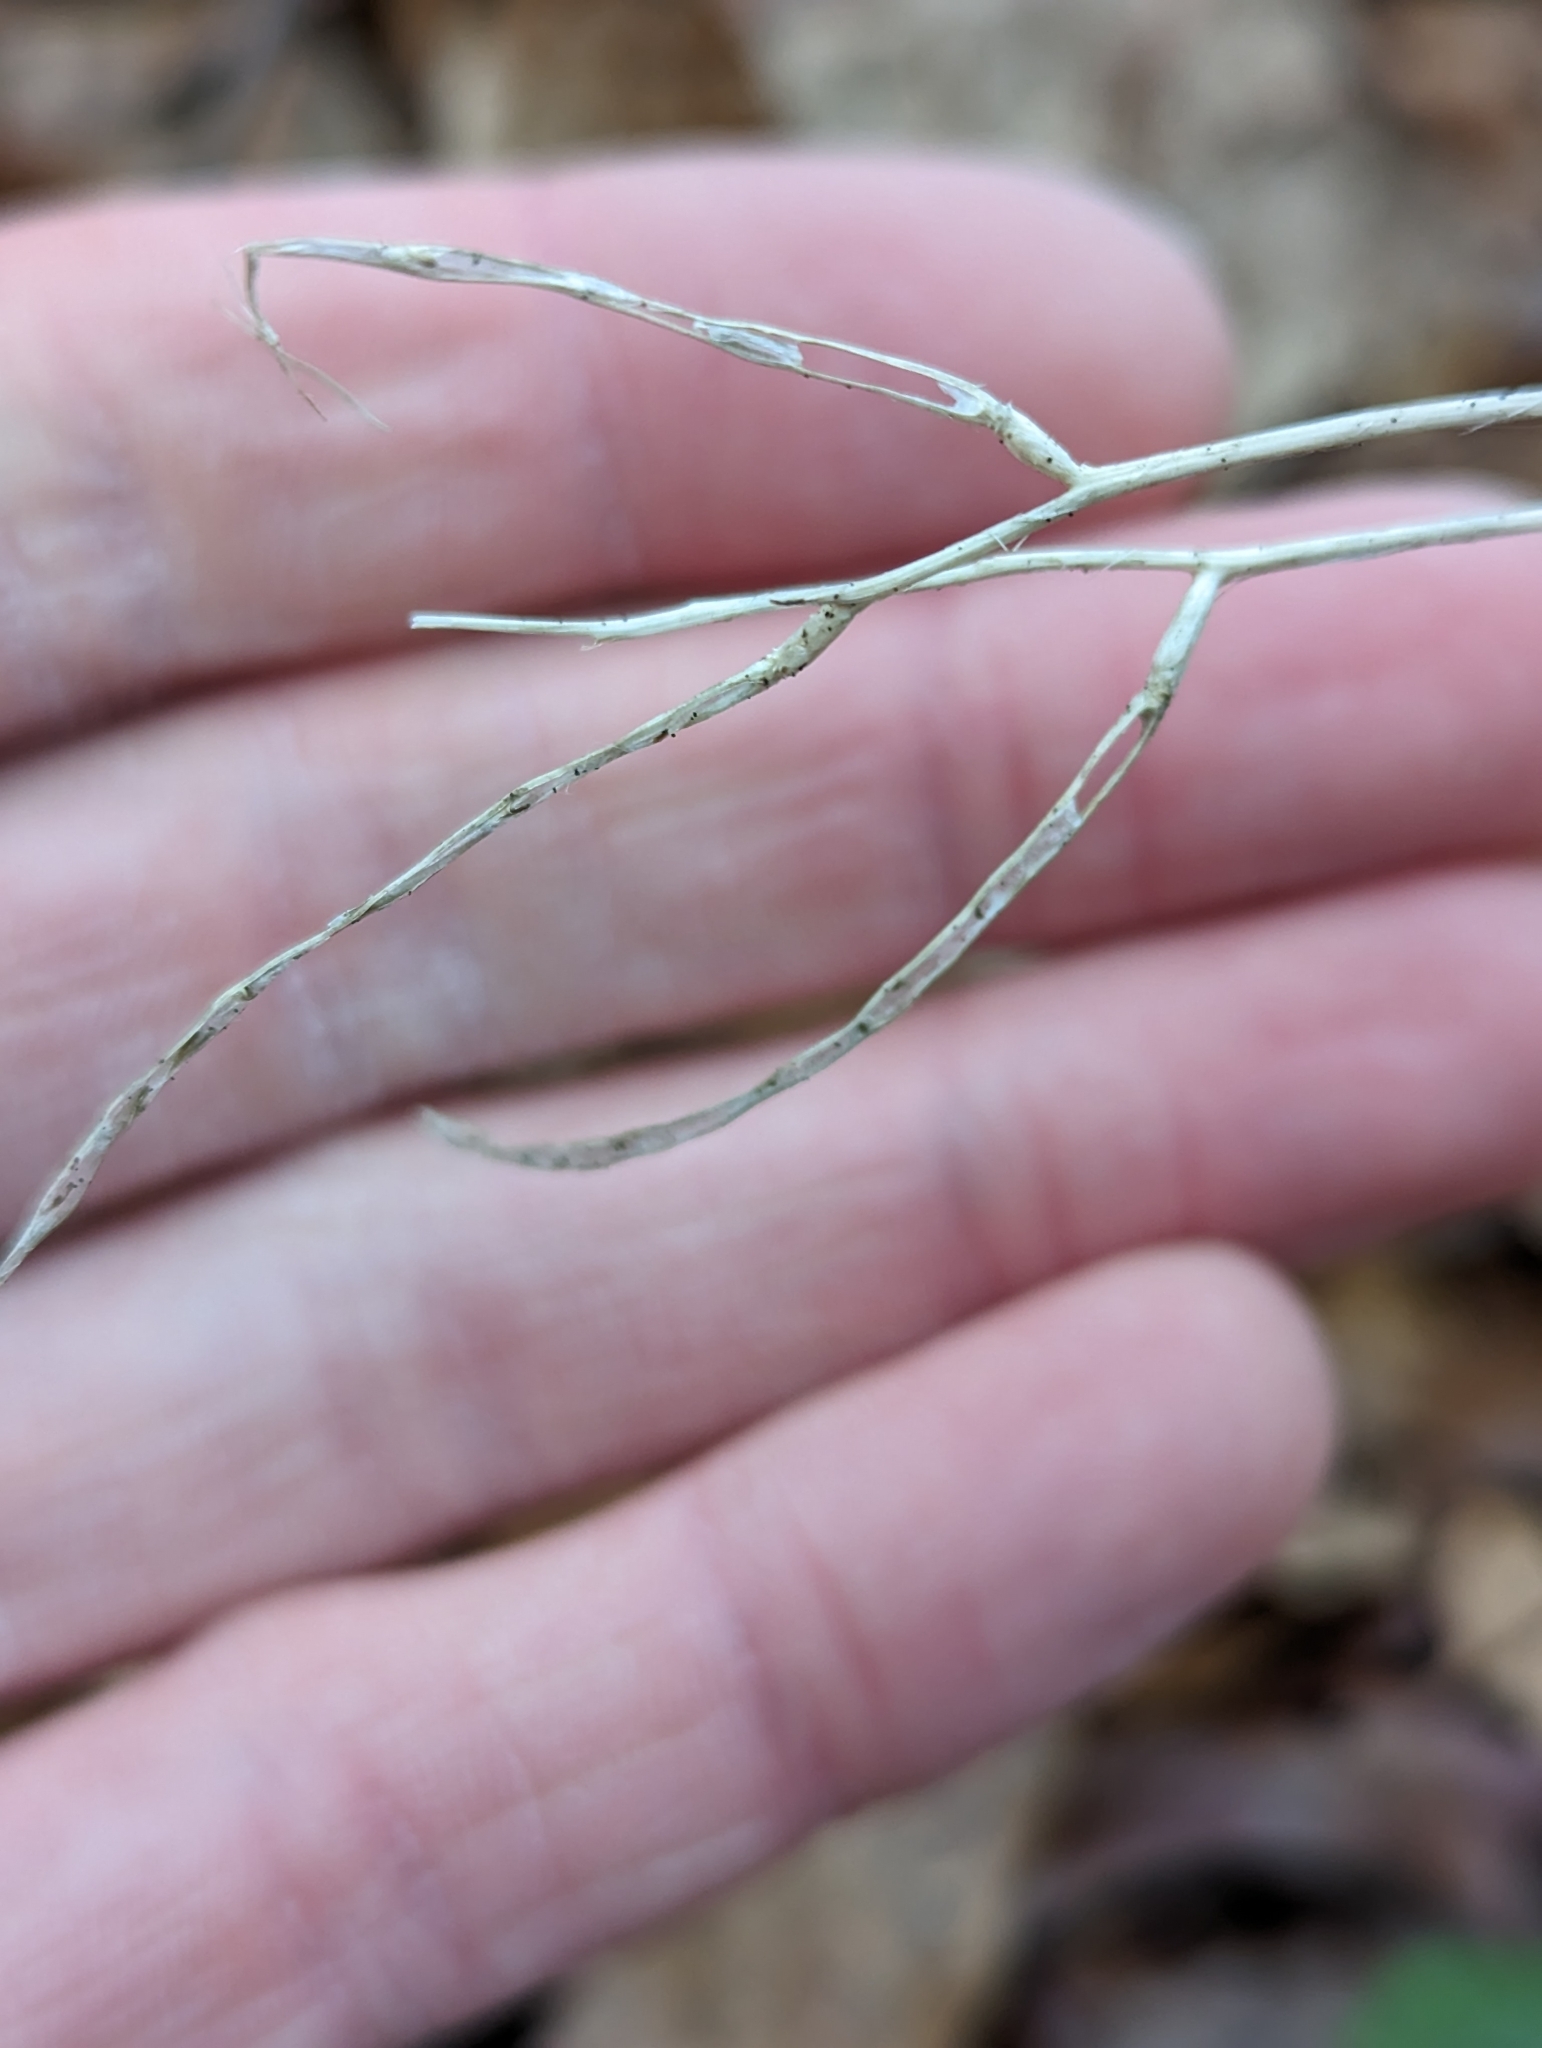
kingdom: Plantae
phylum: Tracheophyta
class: Magnoliopsida
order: Brassicales
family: Brassicaceae
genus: Alliaria
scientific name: Alliaria petiolata
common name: Garlic mustard
